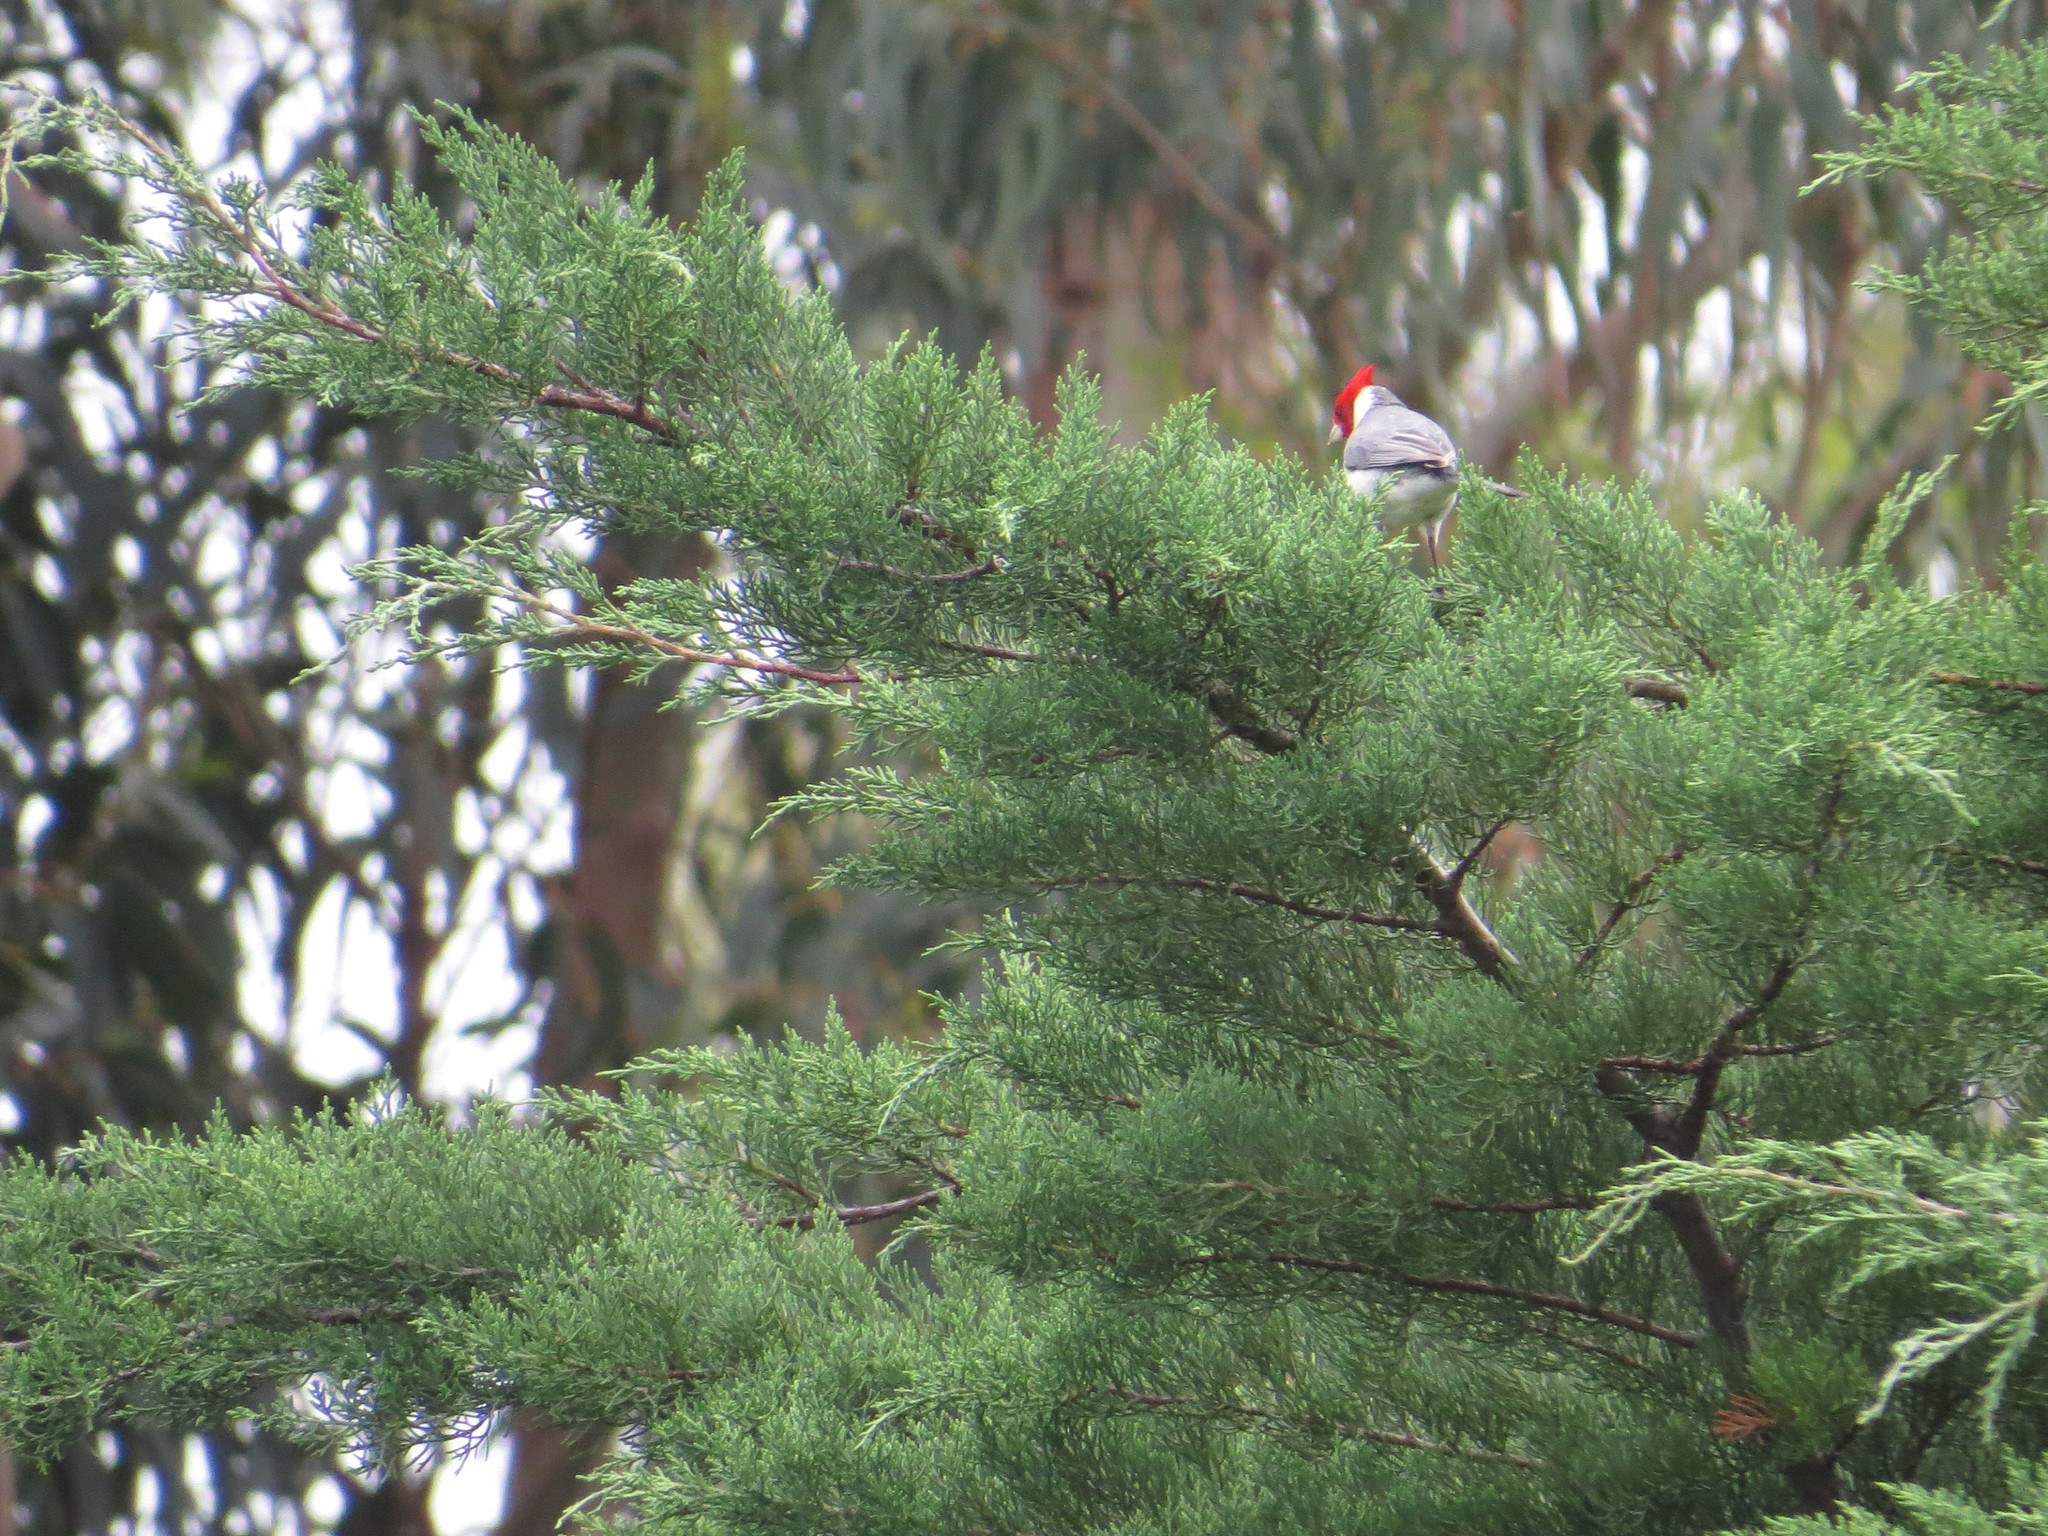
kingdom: Animalia
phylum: Chordata
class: Aves
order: Passeriformes
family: Thraupidae
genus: Paroaria
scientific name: Paroaria coronata
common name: Red-crested cardinal
